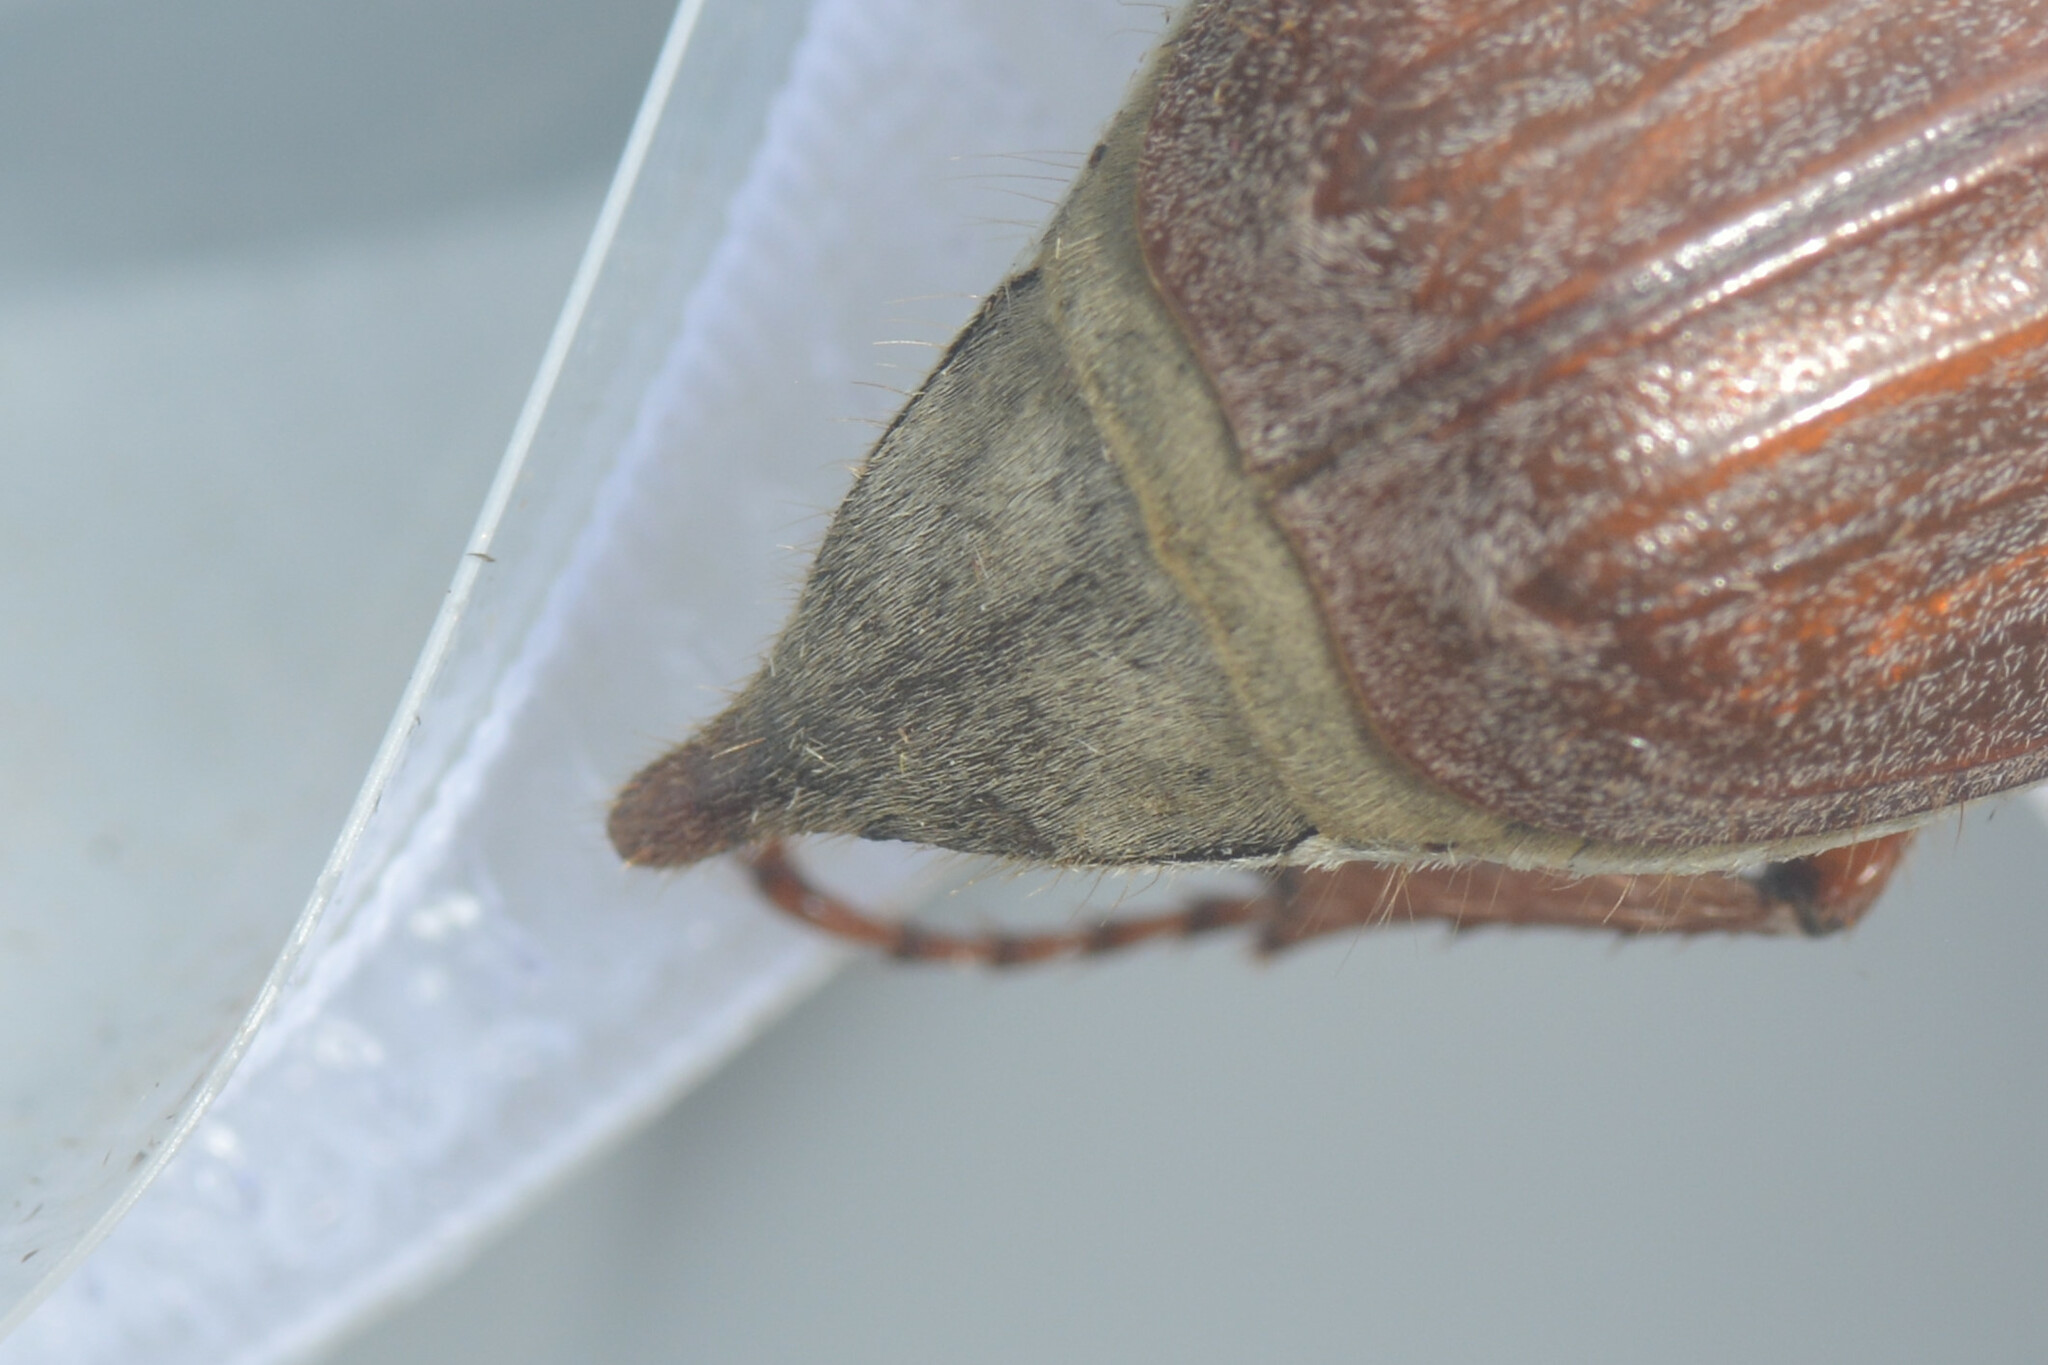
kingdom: Animalia
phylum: Arthropoda
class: Insecta
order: Coleoptera
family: Scarabaeidae
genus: Melolontha
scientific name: Melolontha melolontha
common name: Cockchafer maybeetle
